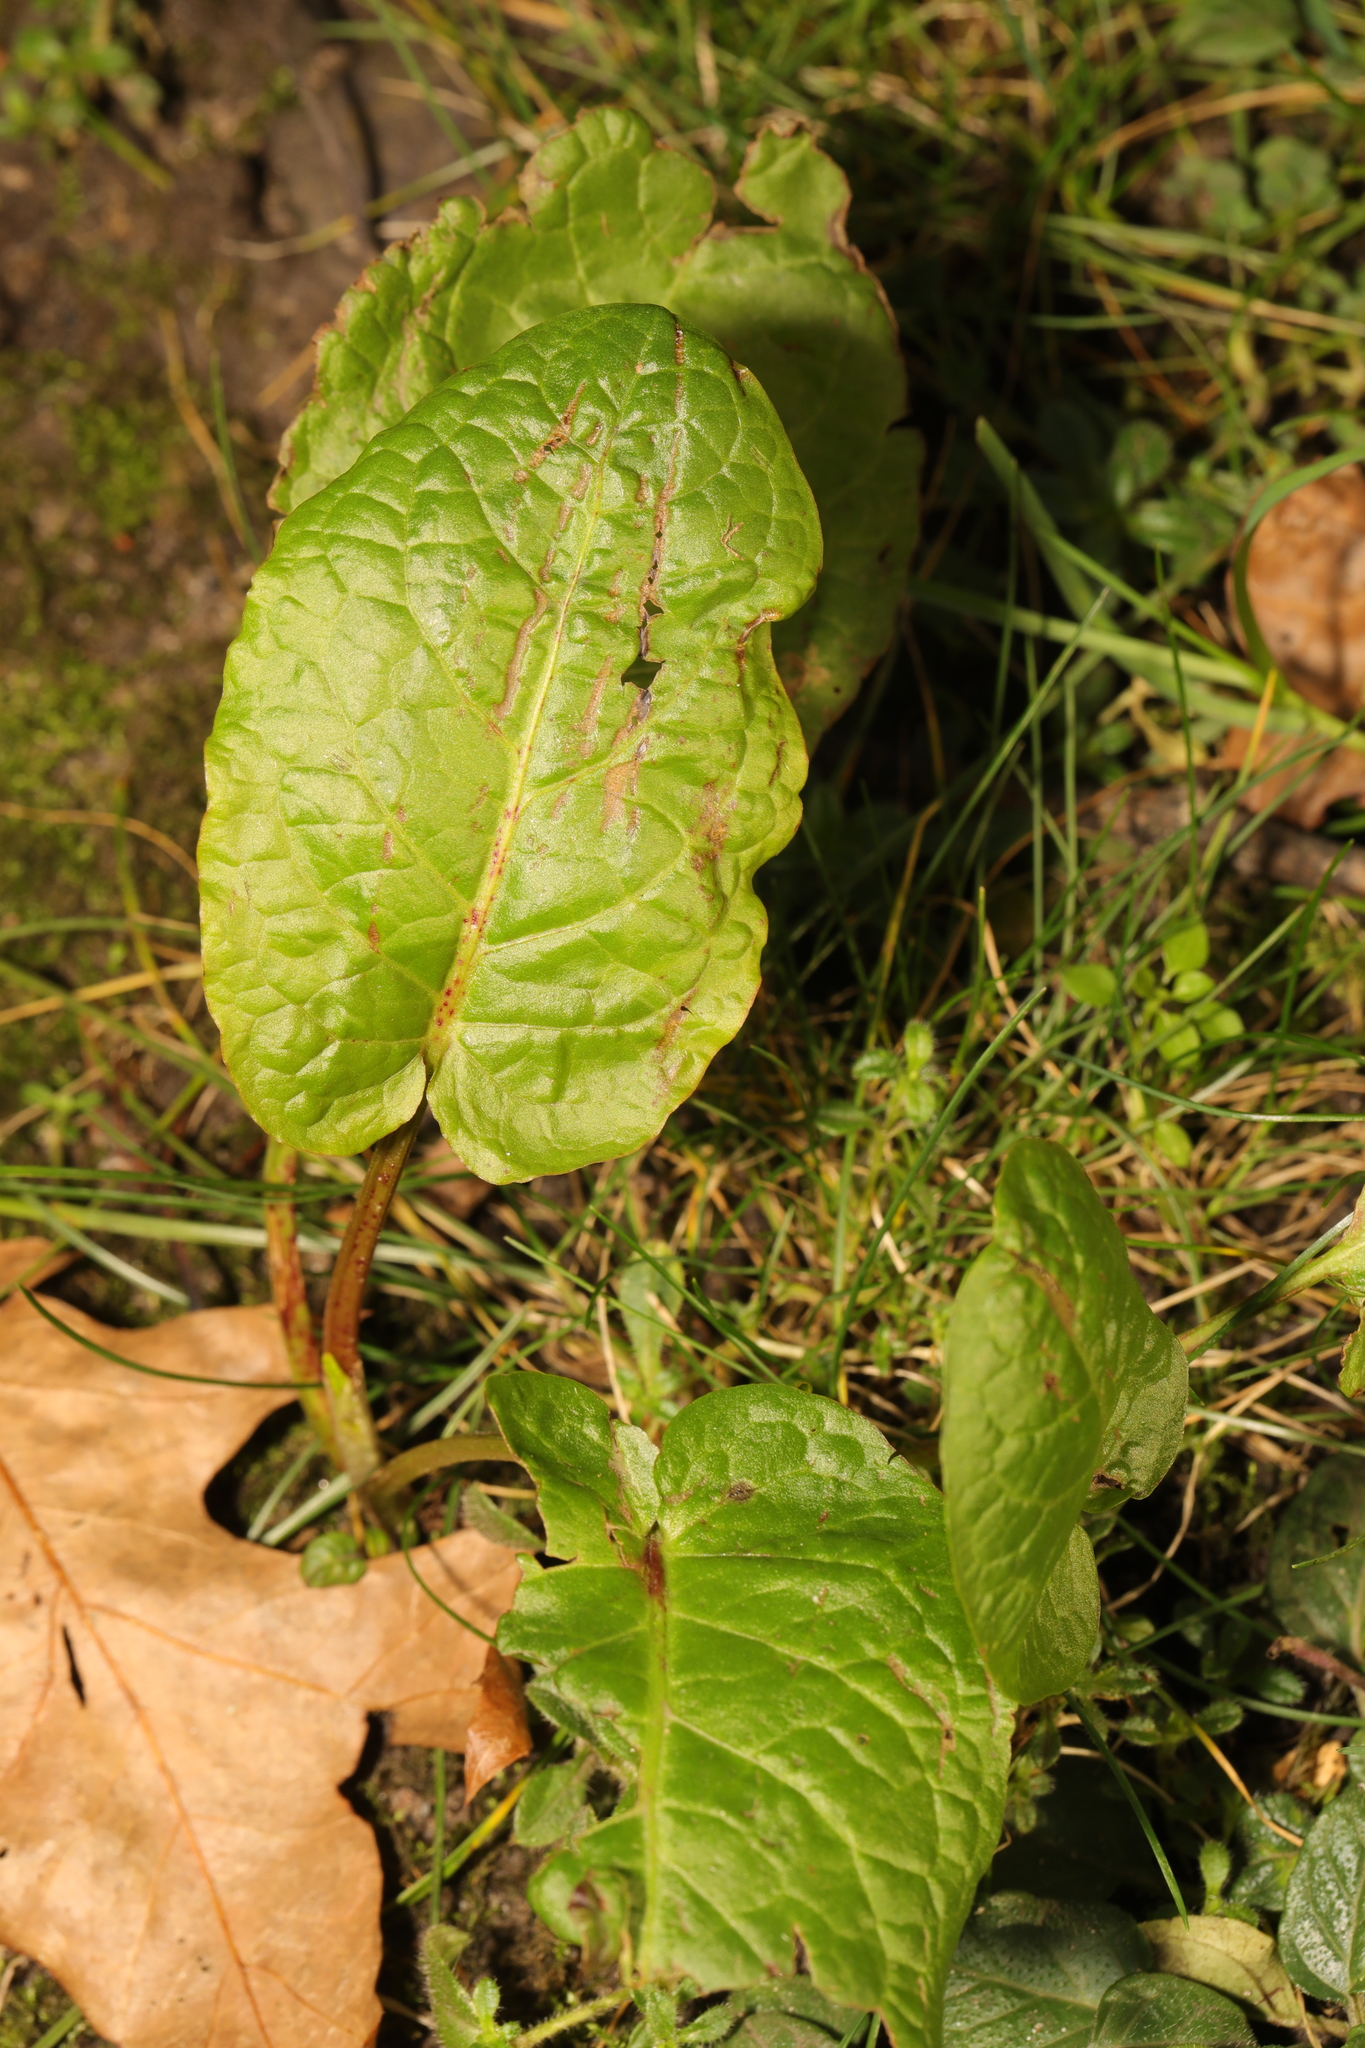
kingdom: Plantae
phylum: Tracheophyta
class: Magnoliopsida
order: Caryophyllales
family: Polygonaceae
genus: Rumex
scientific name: Rumex obtusifolius
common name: Bitter dock
